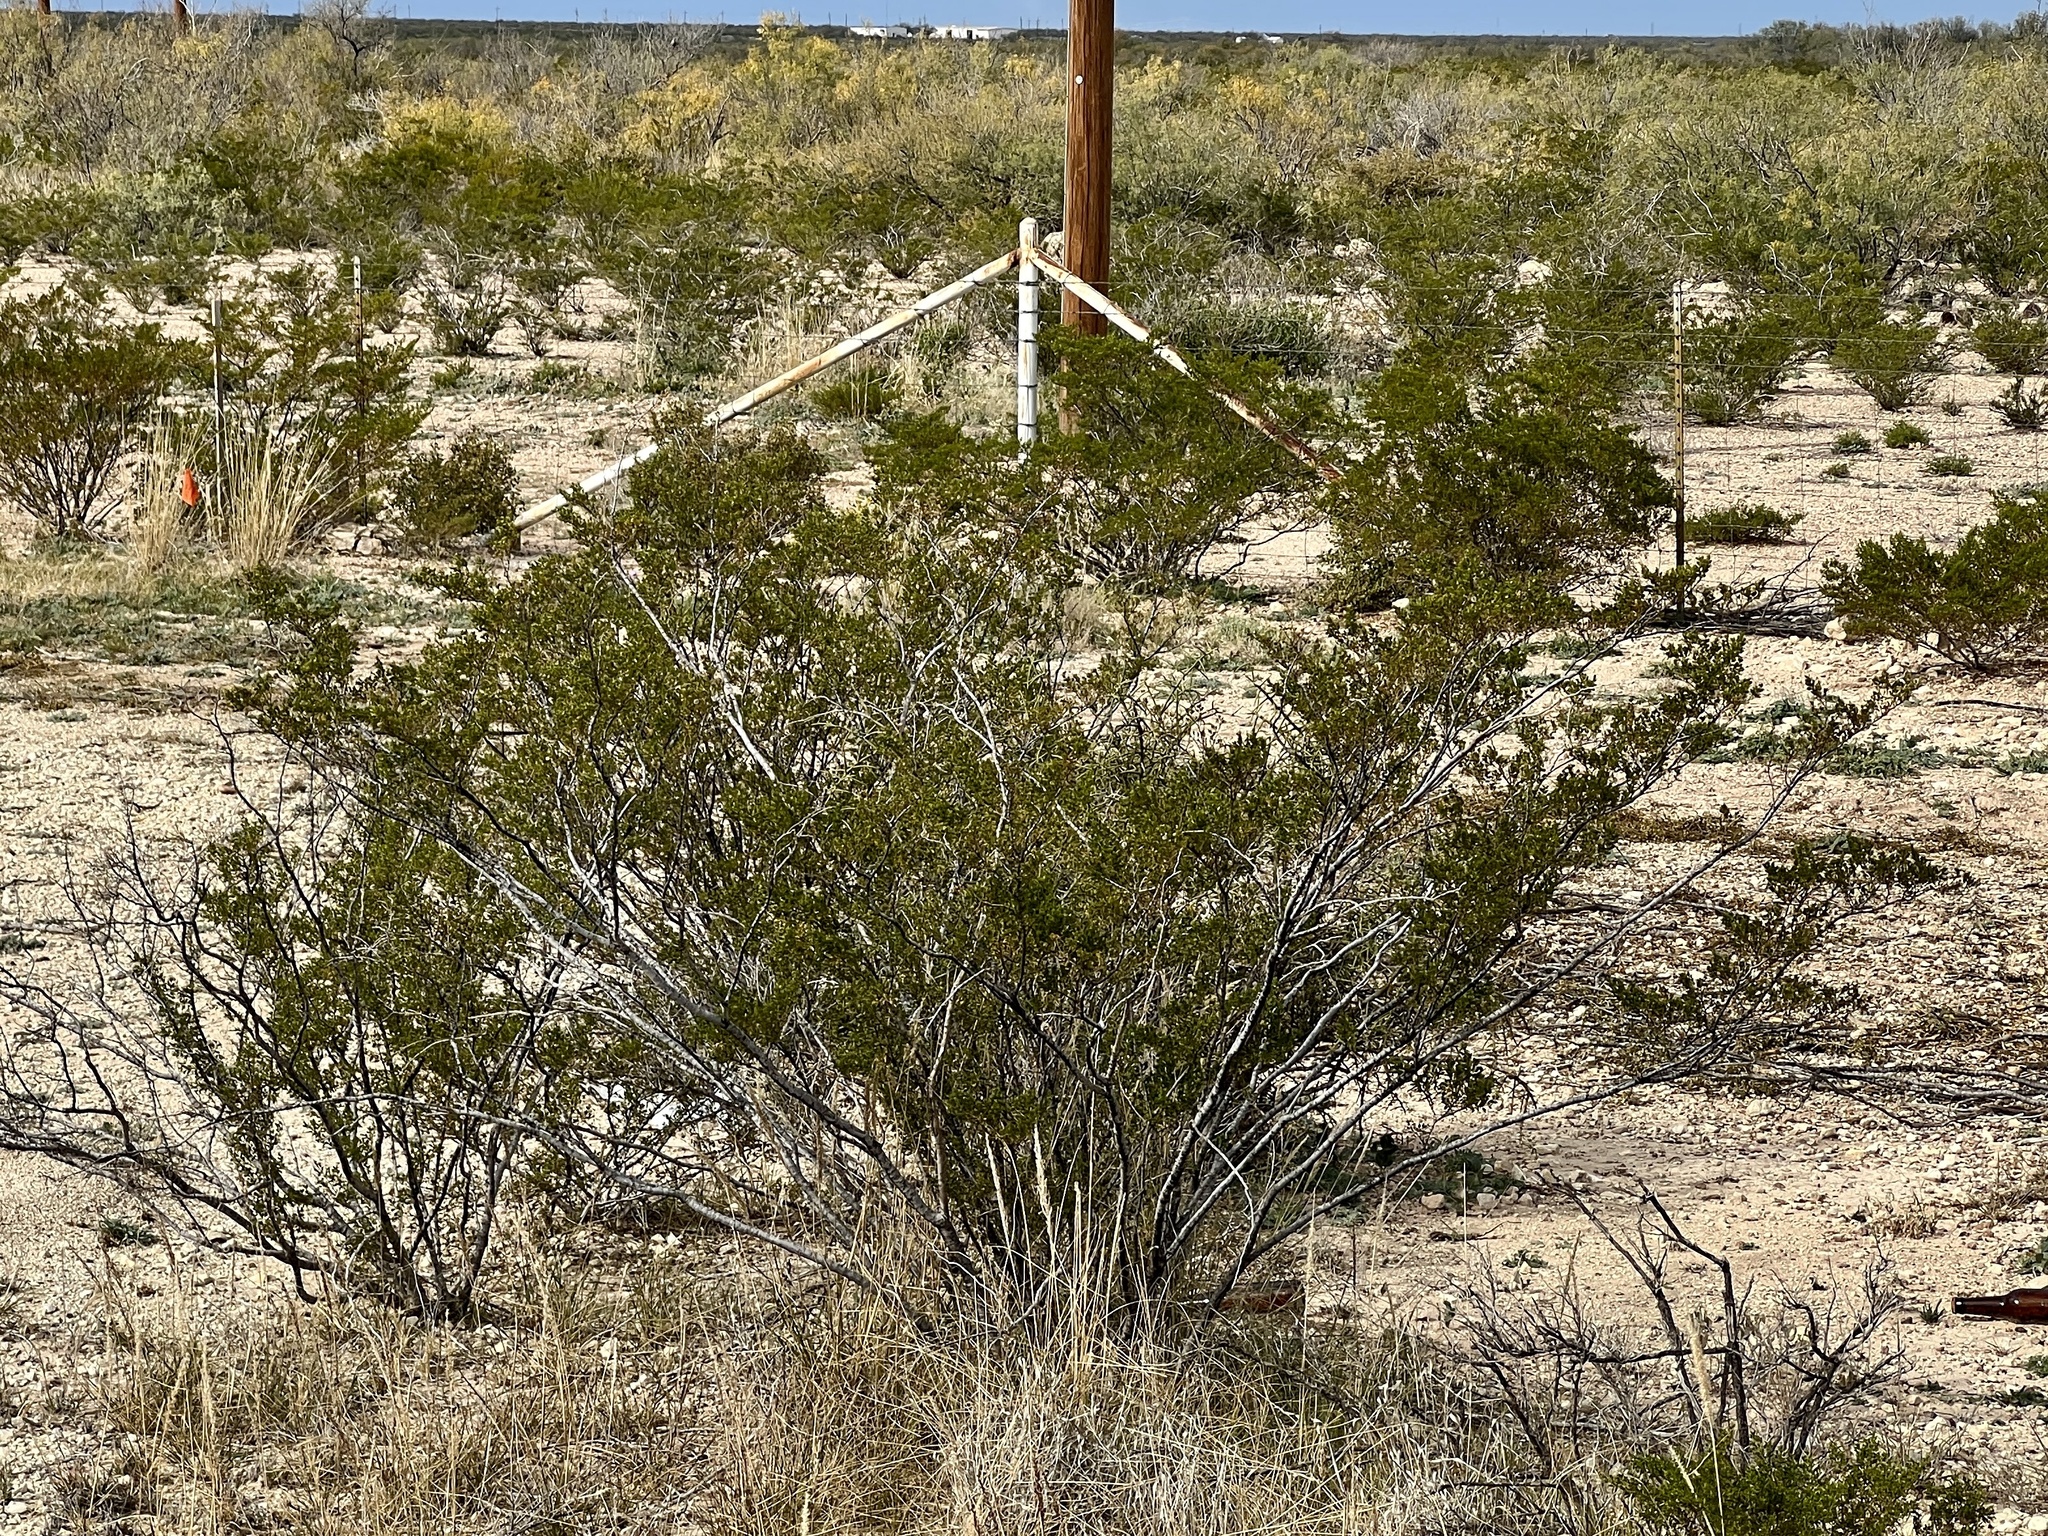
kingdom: Plantae
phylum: Tracheophyta
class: Magnoliopsida
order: Zygophyllales
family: Zygophyllaceae
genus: Larrea
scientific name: Larrea tridentata
